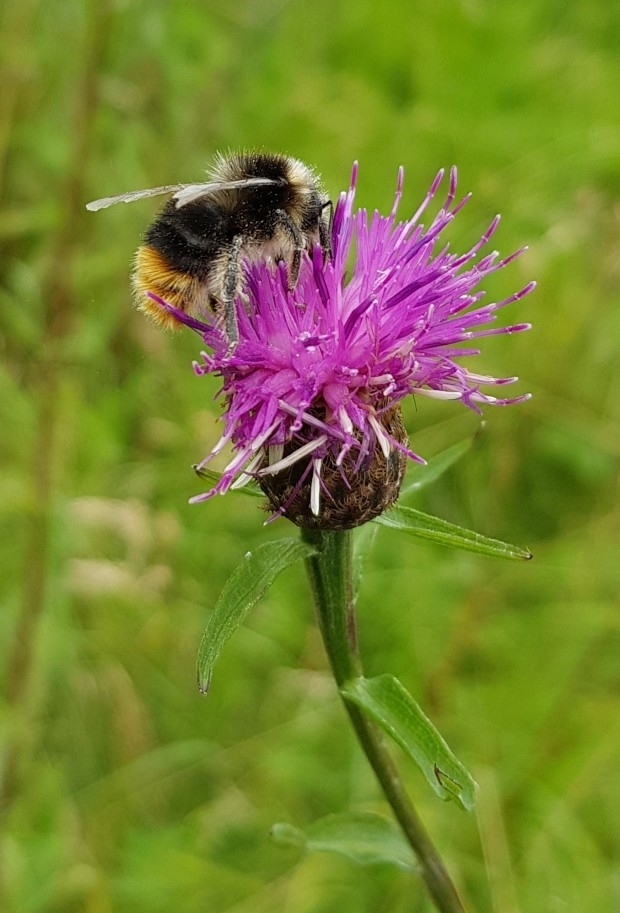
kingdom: Animalia
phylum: Arthropoda
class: Insecta
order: Hymenoptera
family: Apidae
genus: Bombus
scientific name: Bombus lapidarius
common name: Large red-tailed humble-bee
